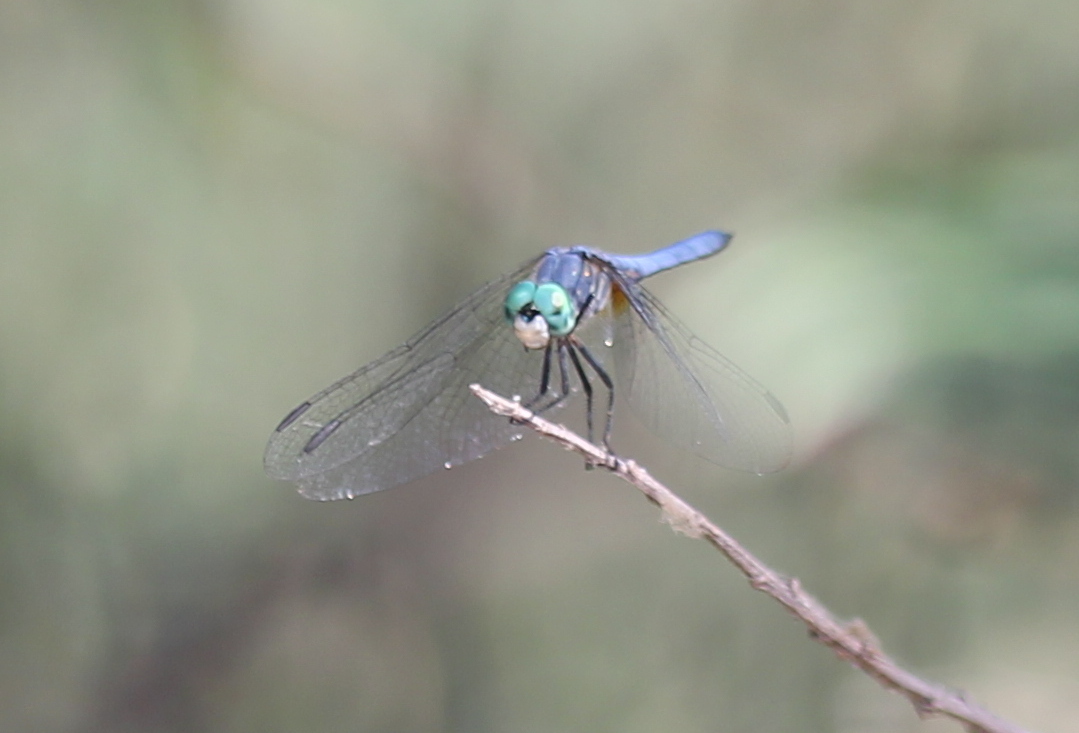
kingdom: Animalia
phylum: Arthropoda
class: Insecta
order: Odonata
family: Libellulidae
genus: Pachydiplax
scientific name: Pachydiplax longipennis
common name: Blue dasher
